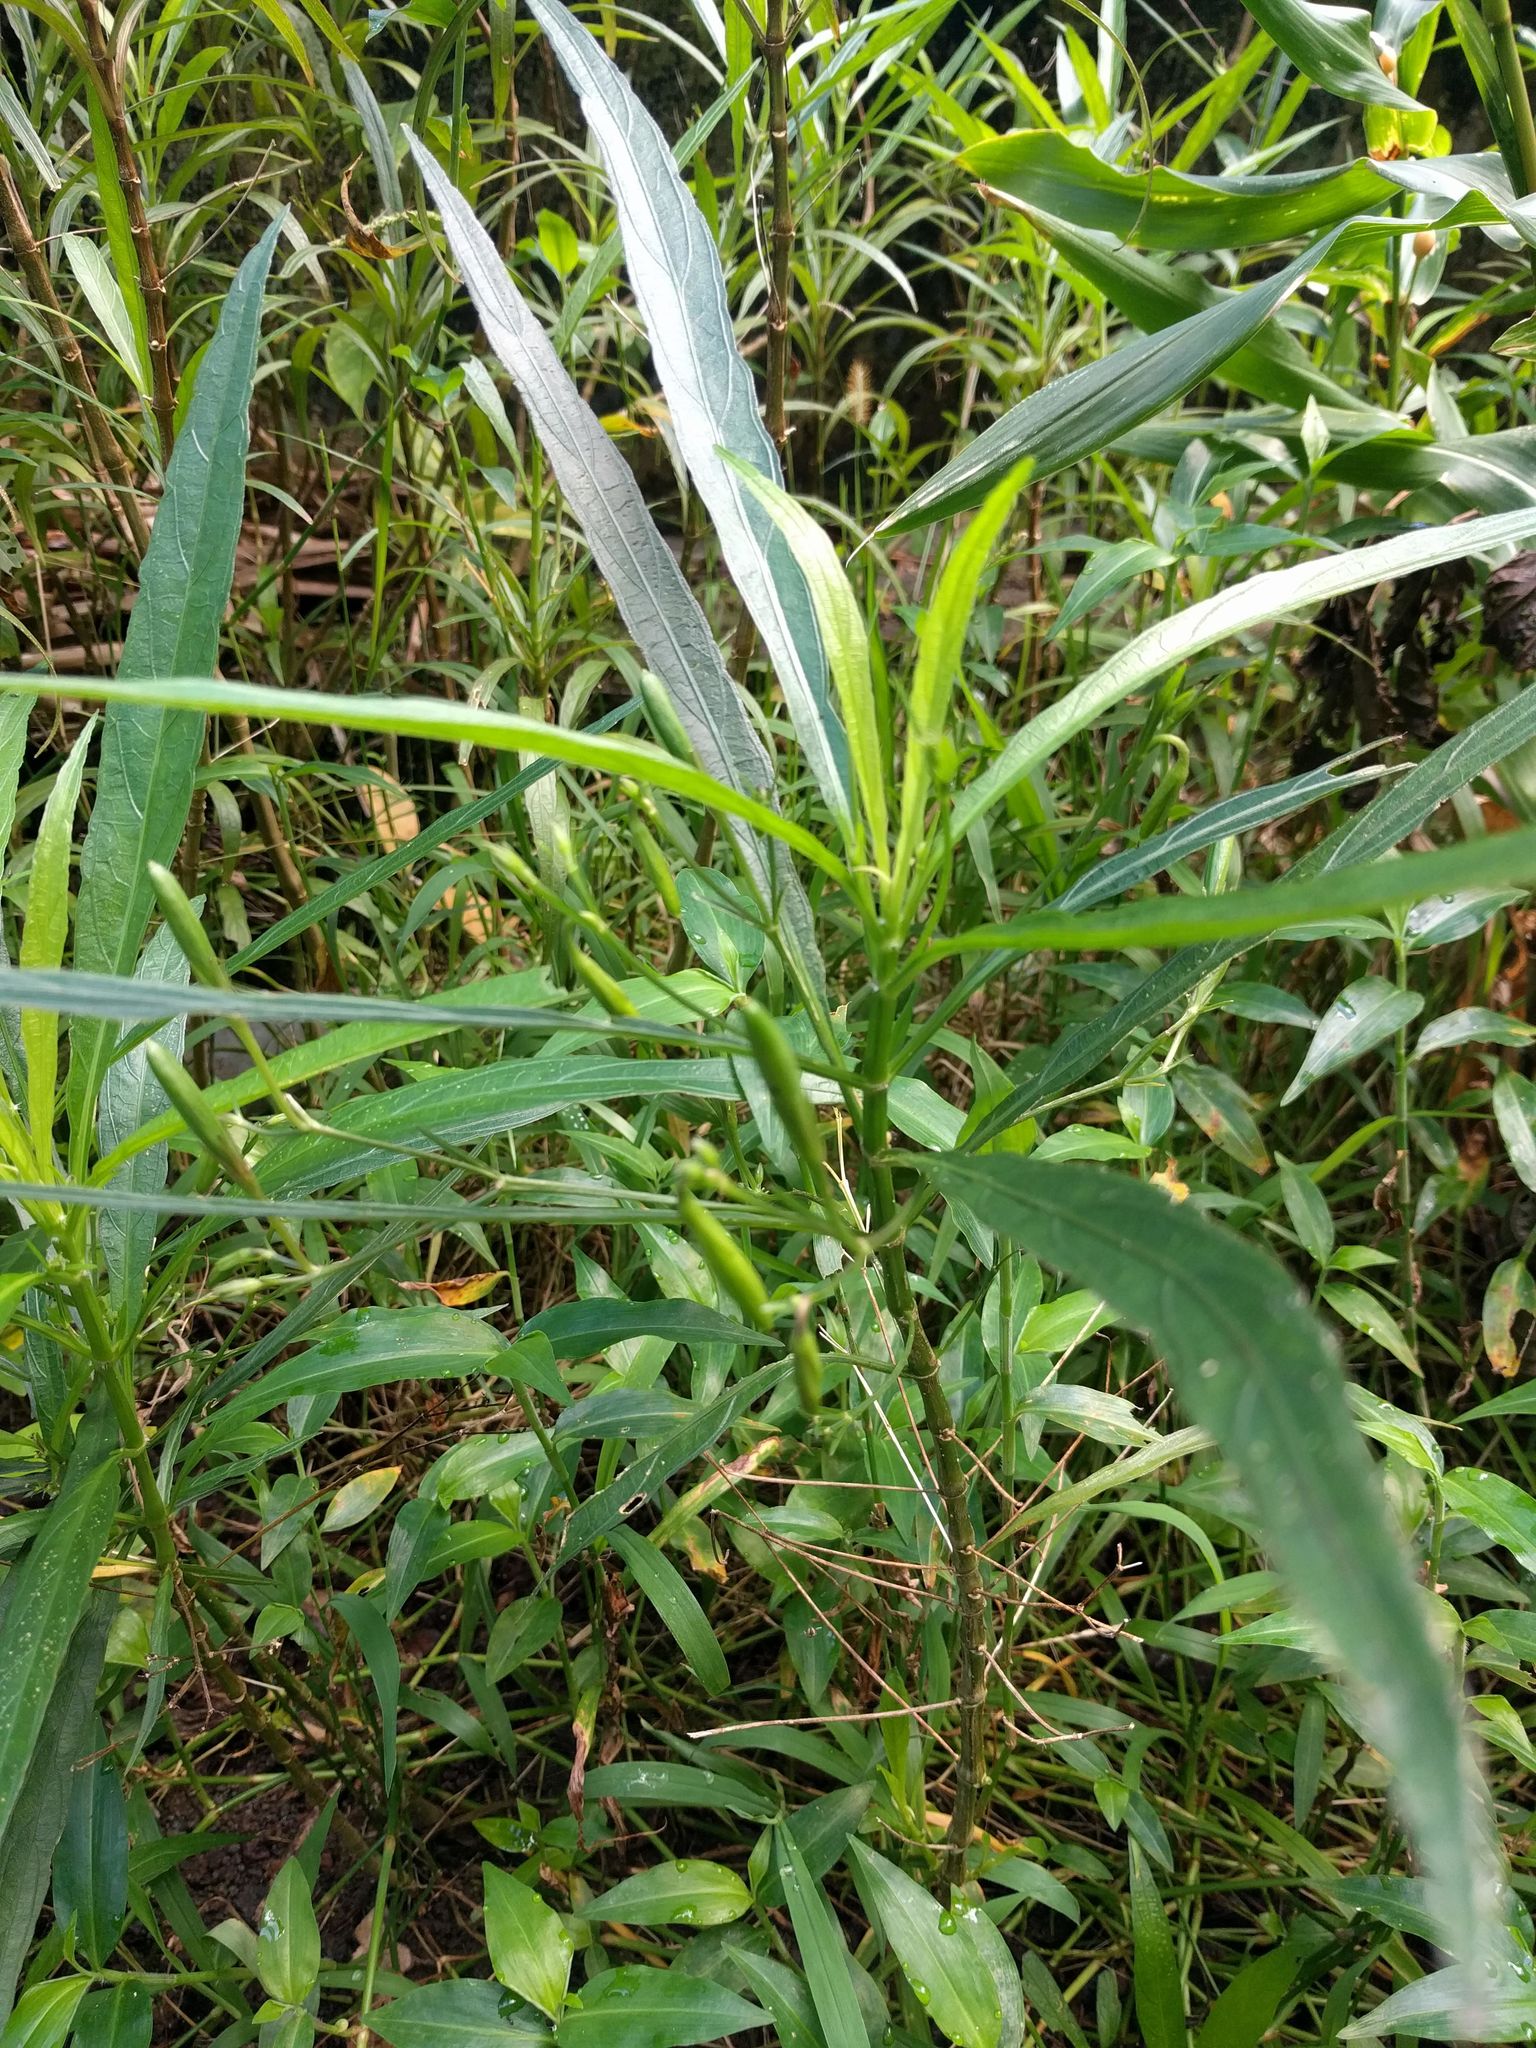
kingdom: Plantae
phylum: Tracheophyta
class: Magnoliopsida
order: Lamiales
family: Acanthaceae
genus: Ruellia
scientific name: Ruellia simplex
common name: Softseed wild petunia
